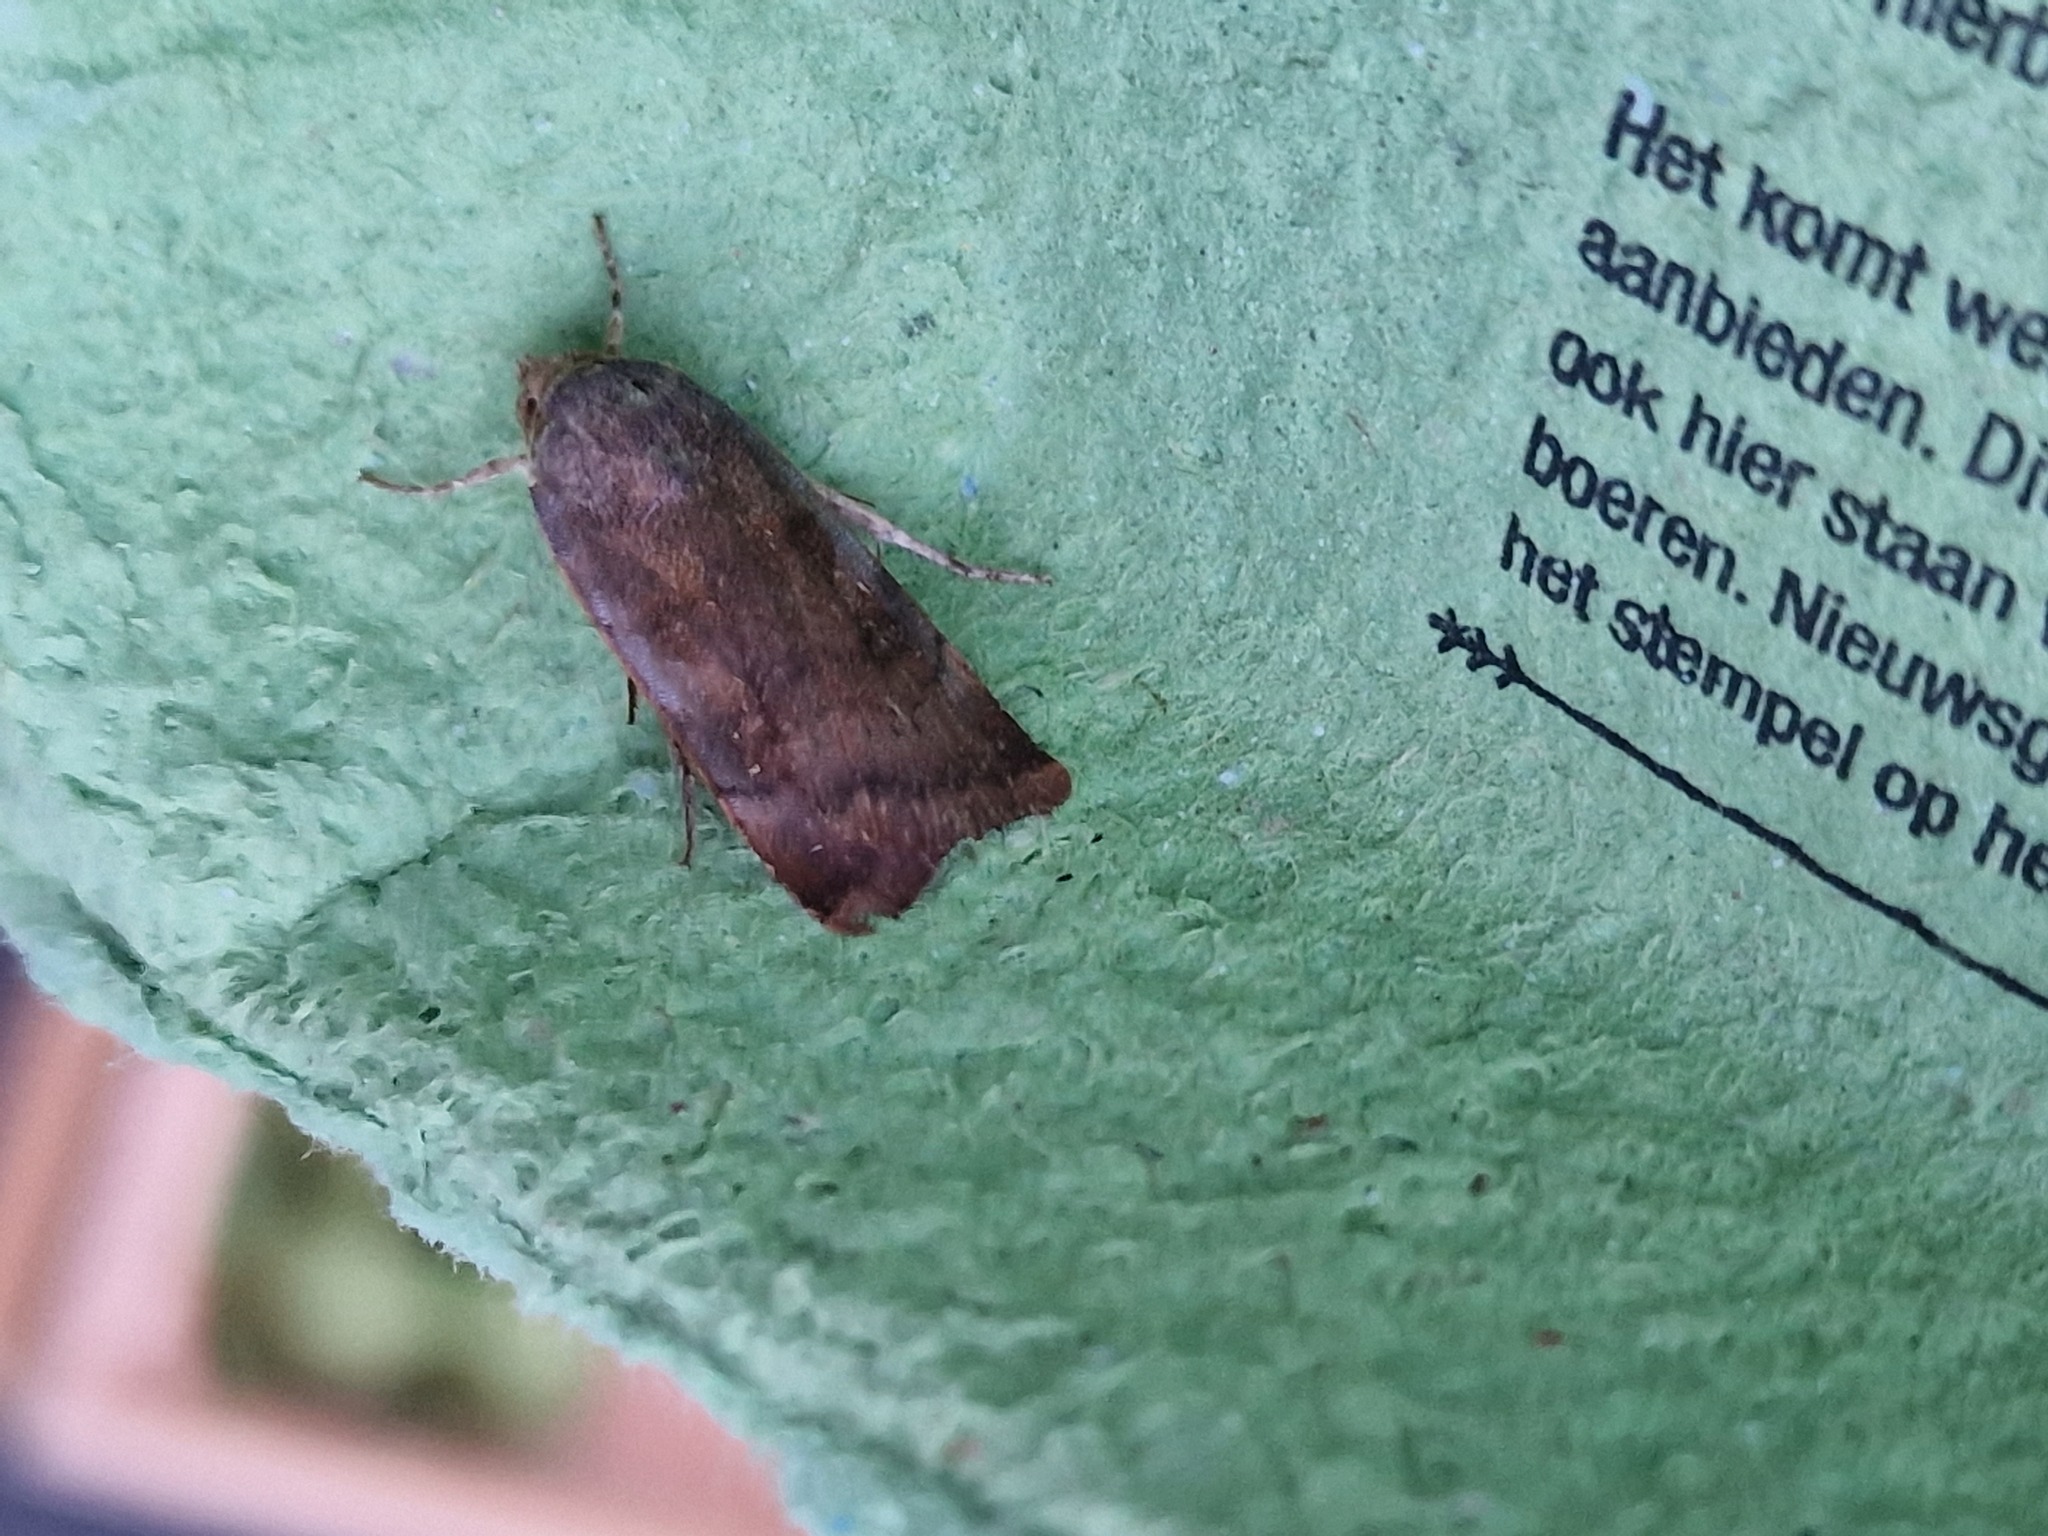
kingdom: Animalia
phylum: Arthropoda
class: Insecta
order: Lepidoptera
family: Noctuidae
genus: Noctua
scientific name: Noctua
